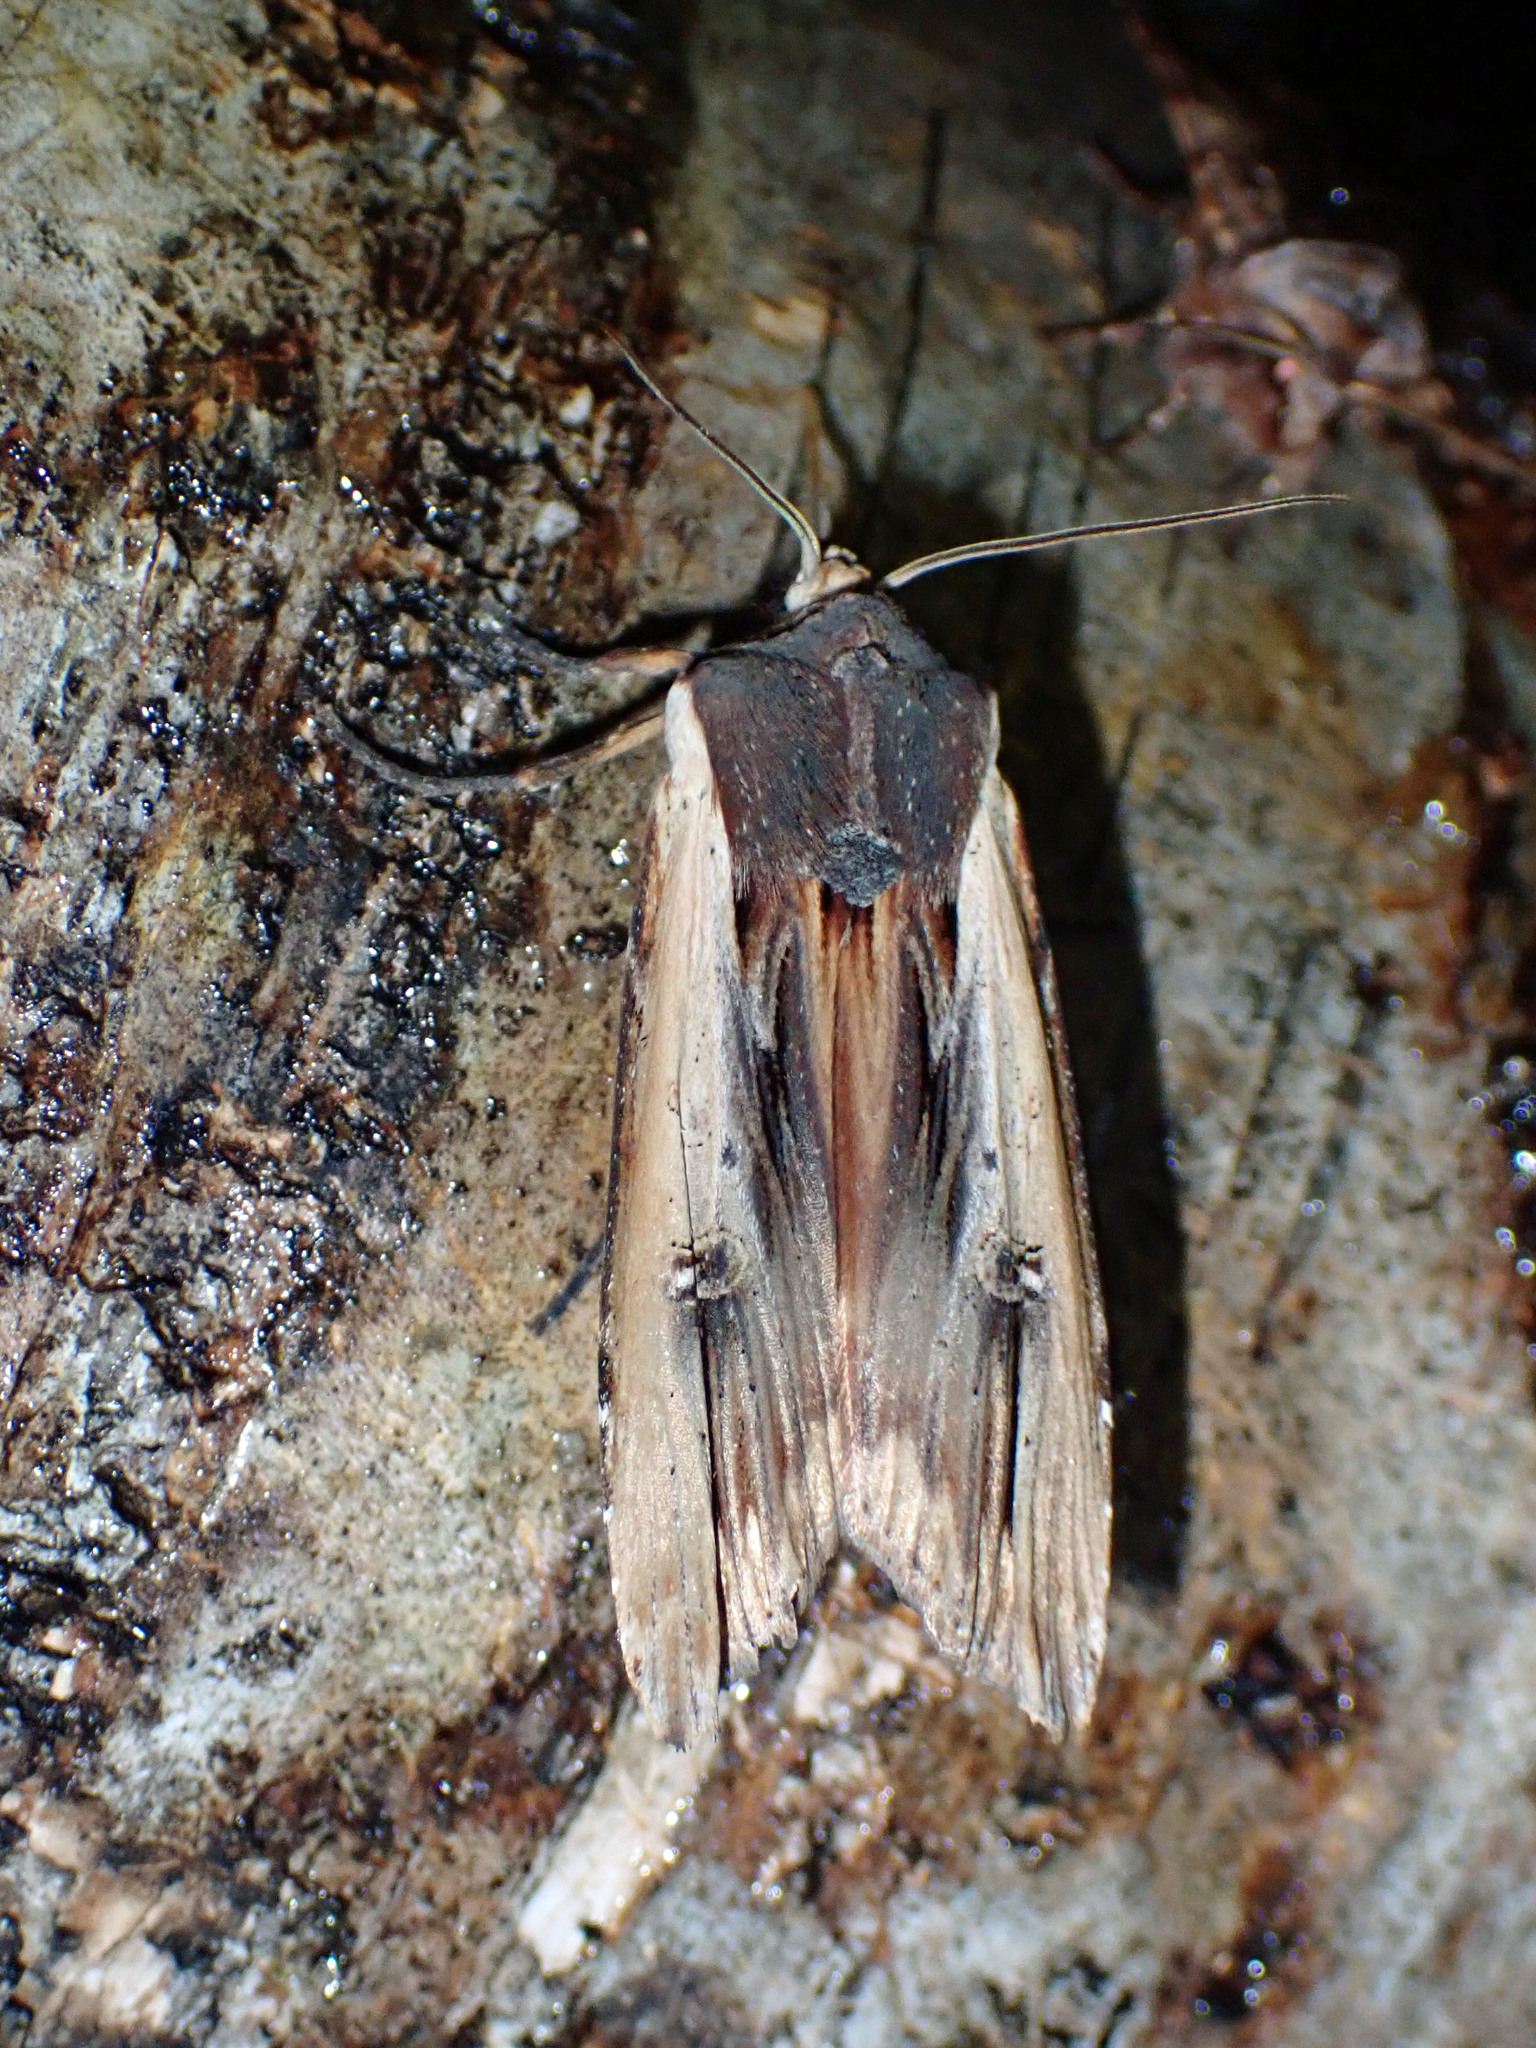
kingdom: Animalia
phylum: Arthropoda
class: Insecta
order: Lepidoptera
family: Noctuidae
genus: Xylena
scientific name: Xylena nupera
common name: American swordgrass moth
